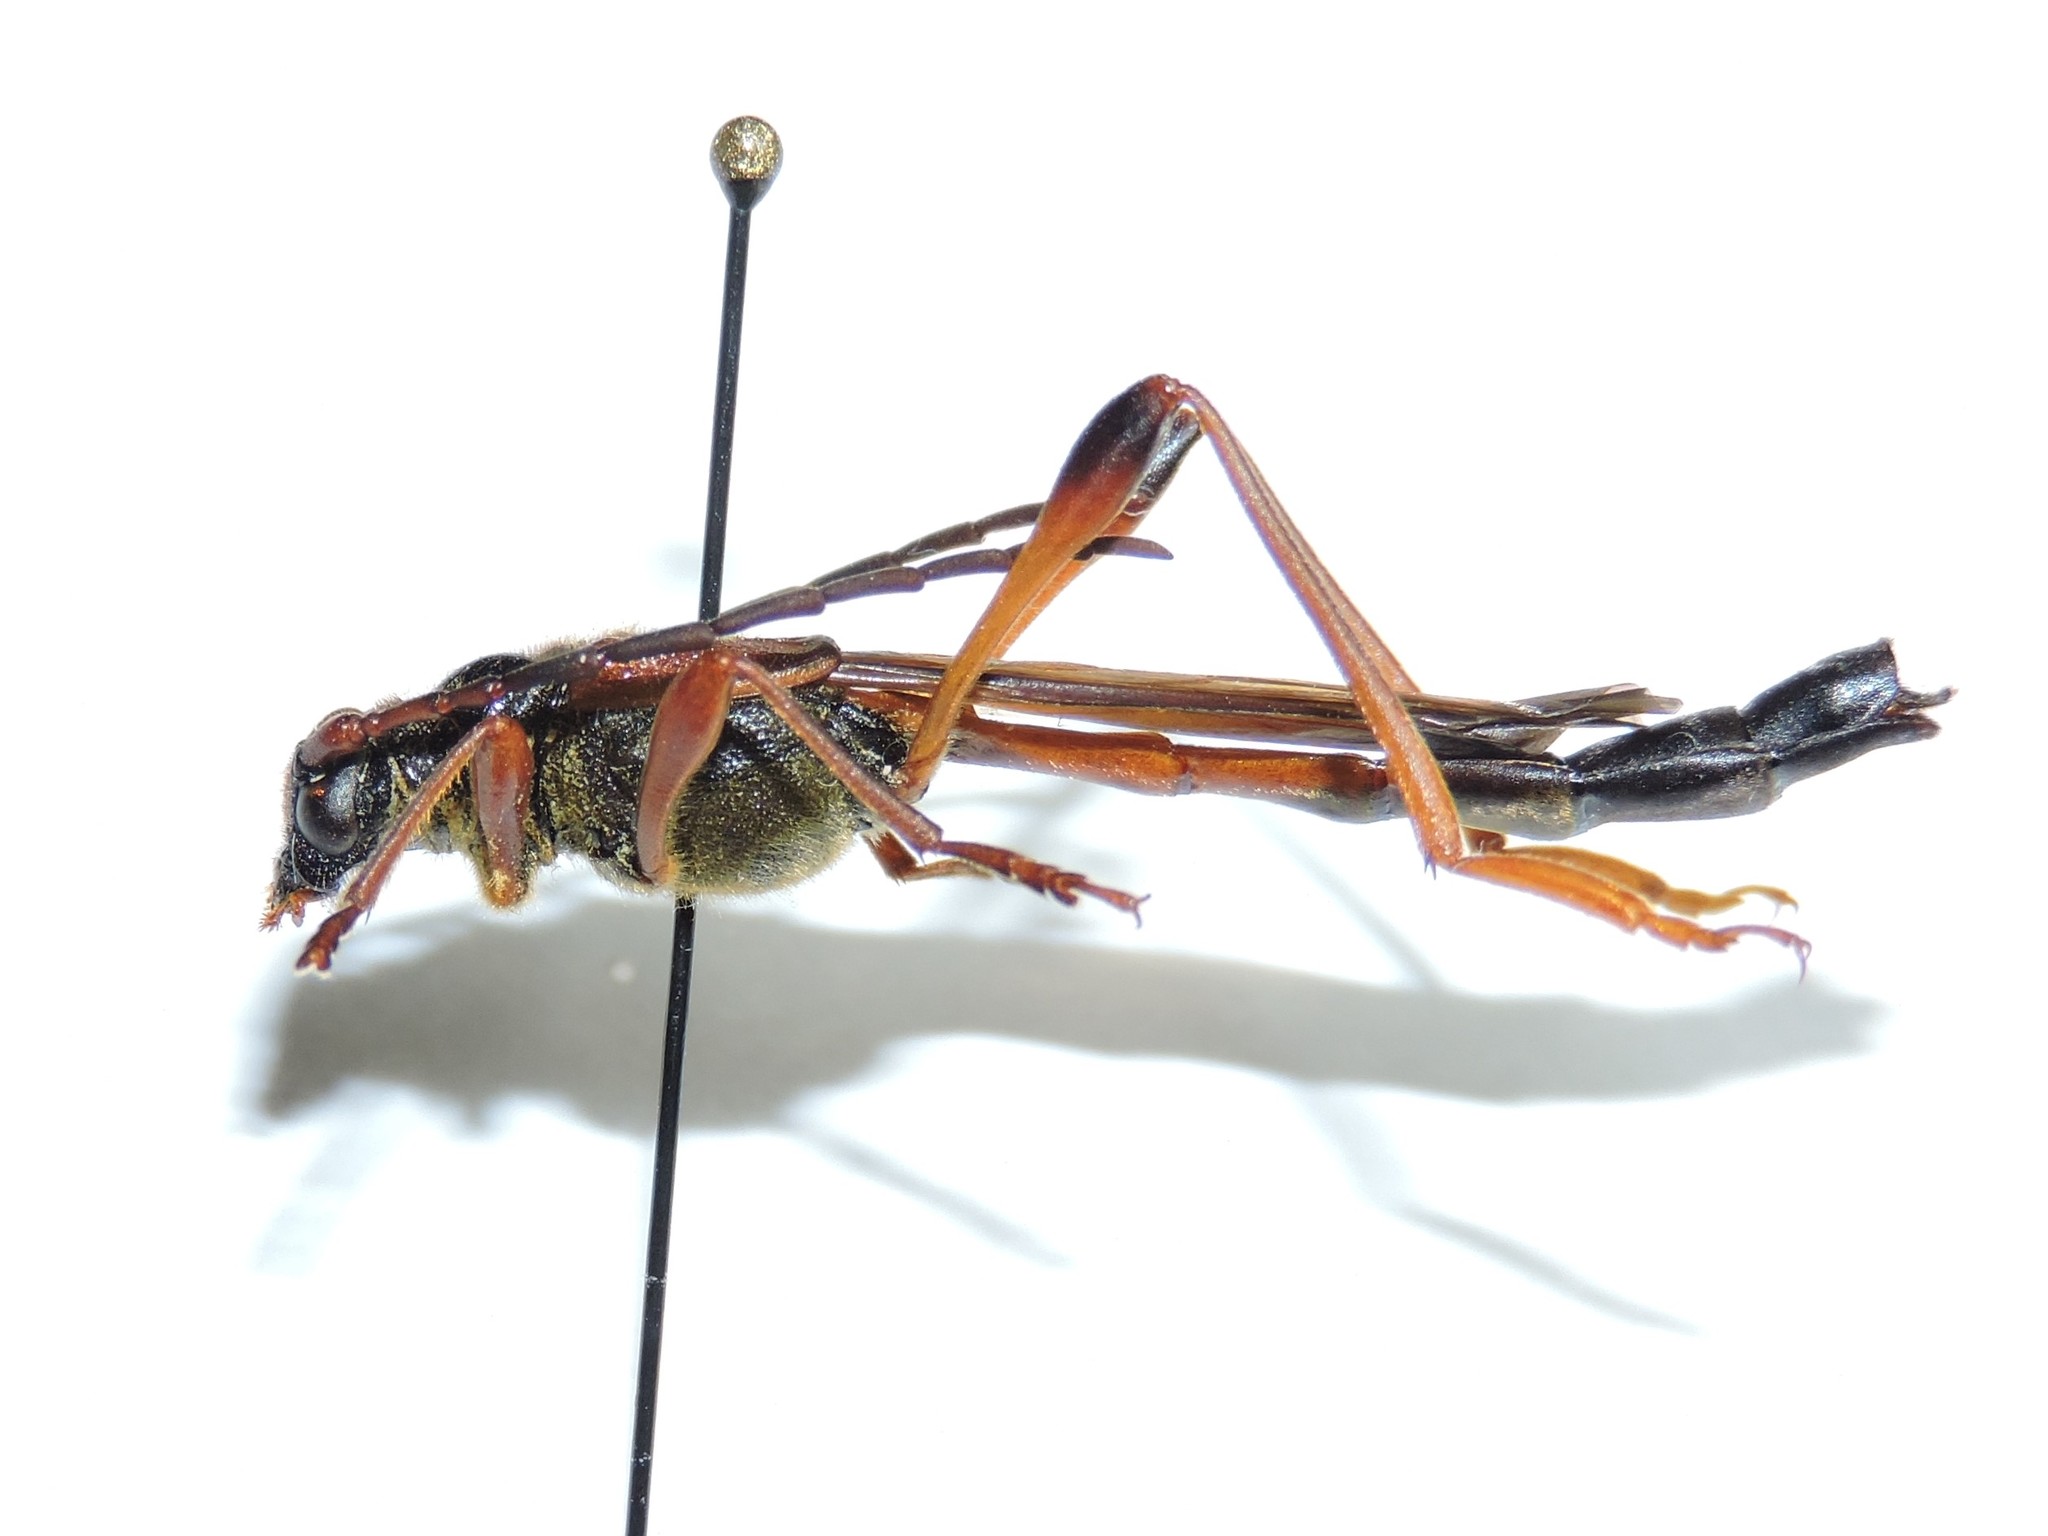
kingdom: Animalia
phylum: Arthropoda
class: Insecta
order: Coleoptera
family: Cerambycidae
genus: Necydalis
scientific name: Necydalis major
